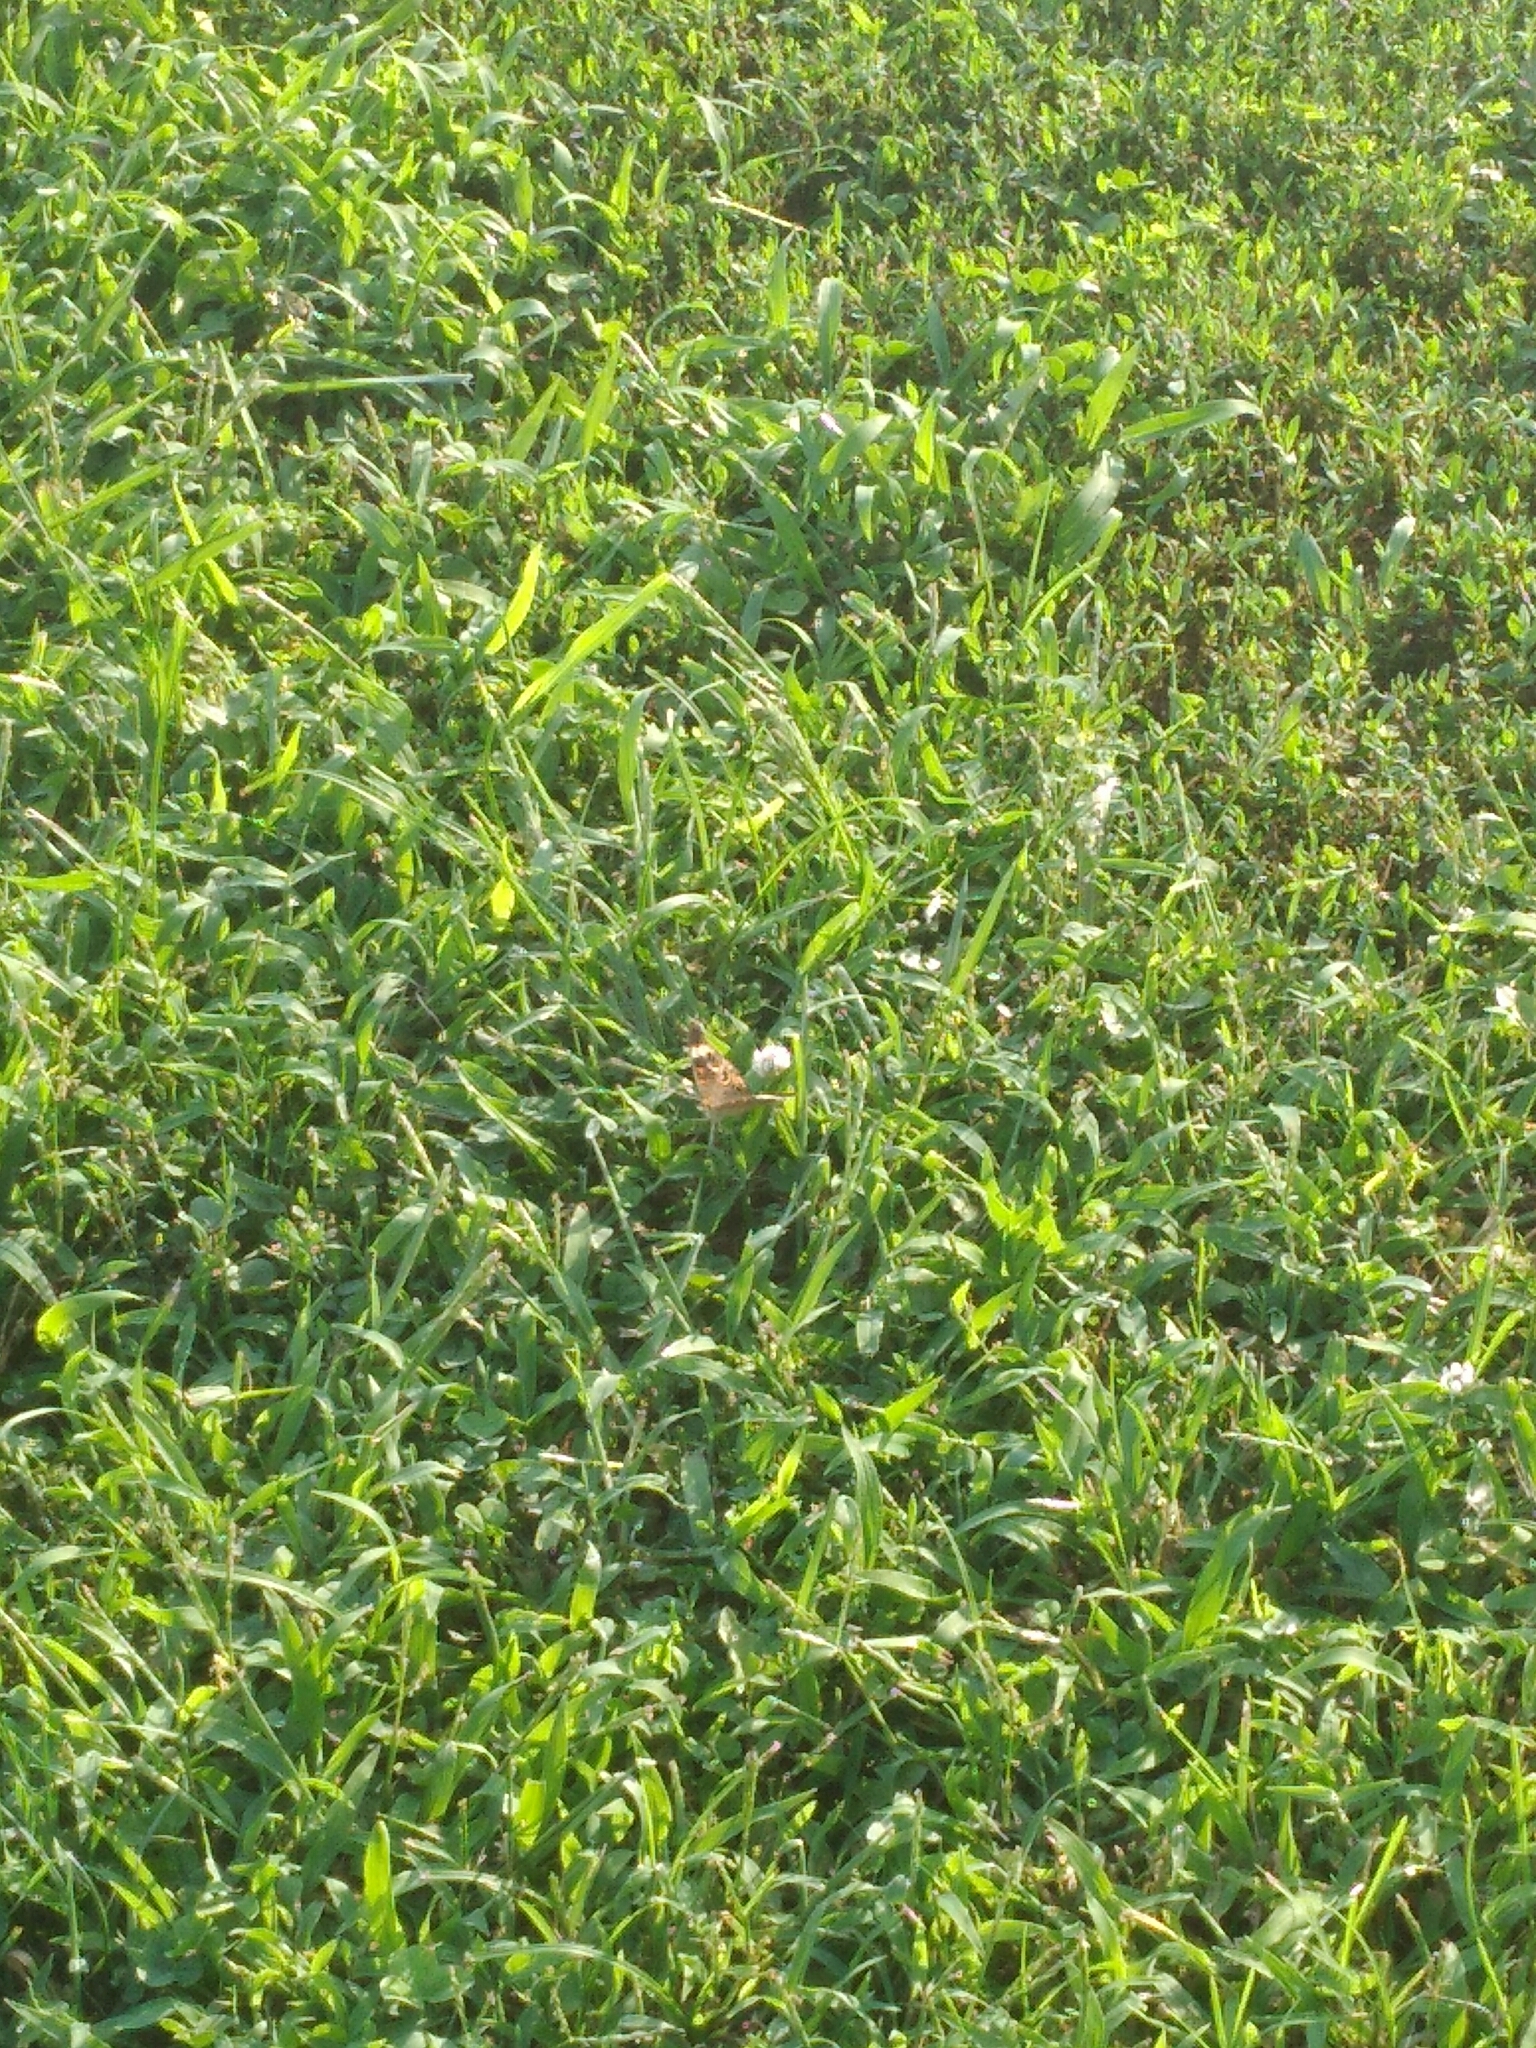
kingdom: Animalia
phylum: Arthropoda
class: Insecta
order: Lepidoptera
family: Nymphalidae
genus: Junonia
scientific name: Junonia coenia
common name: Common buckeye
